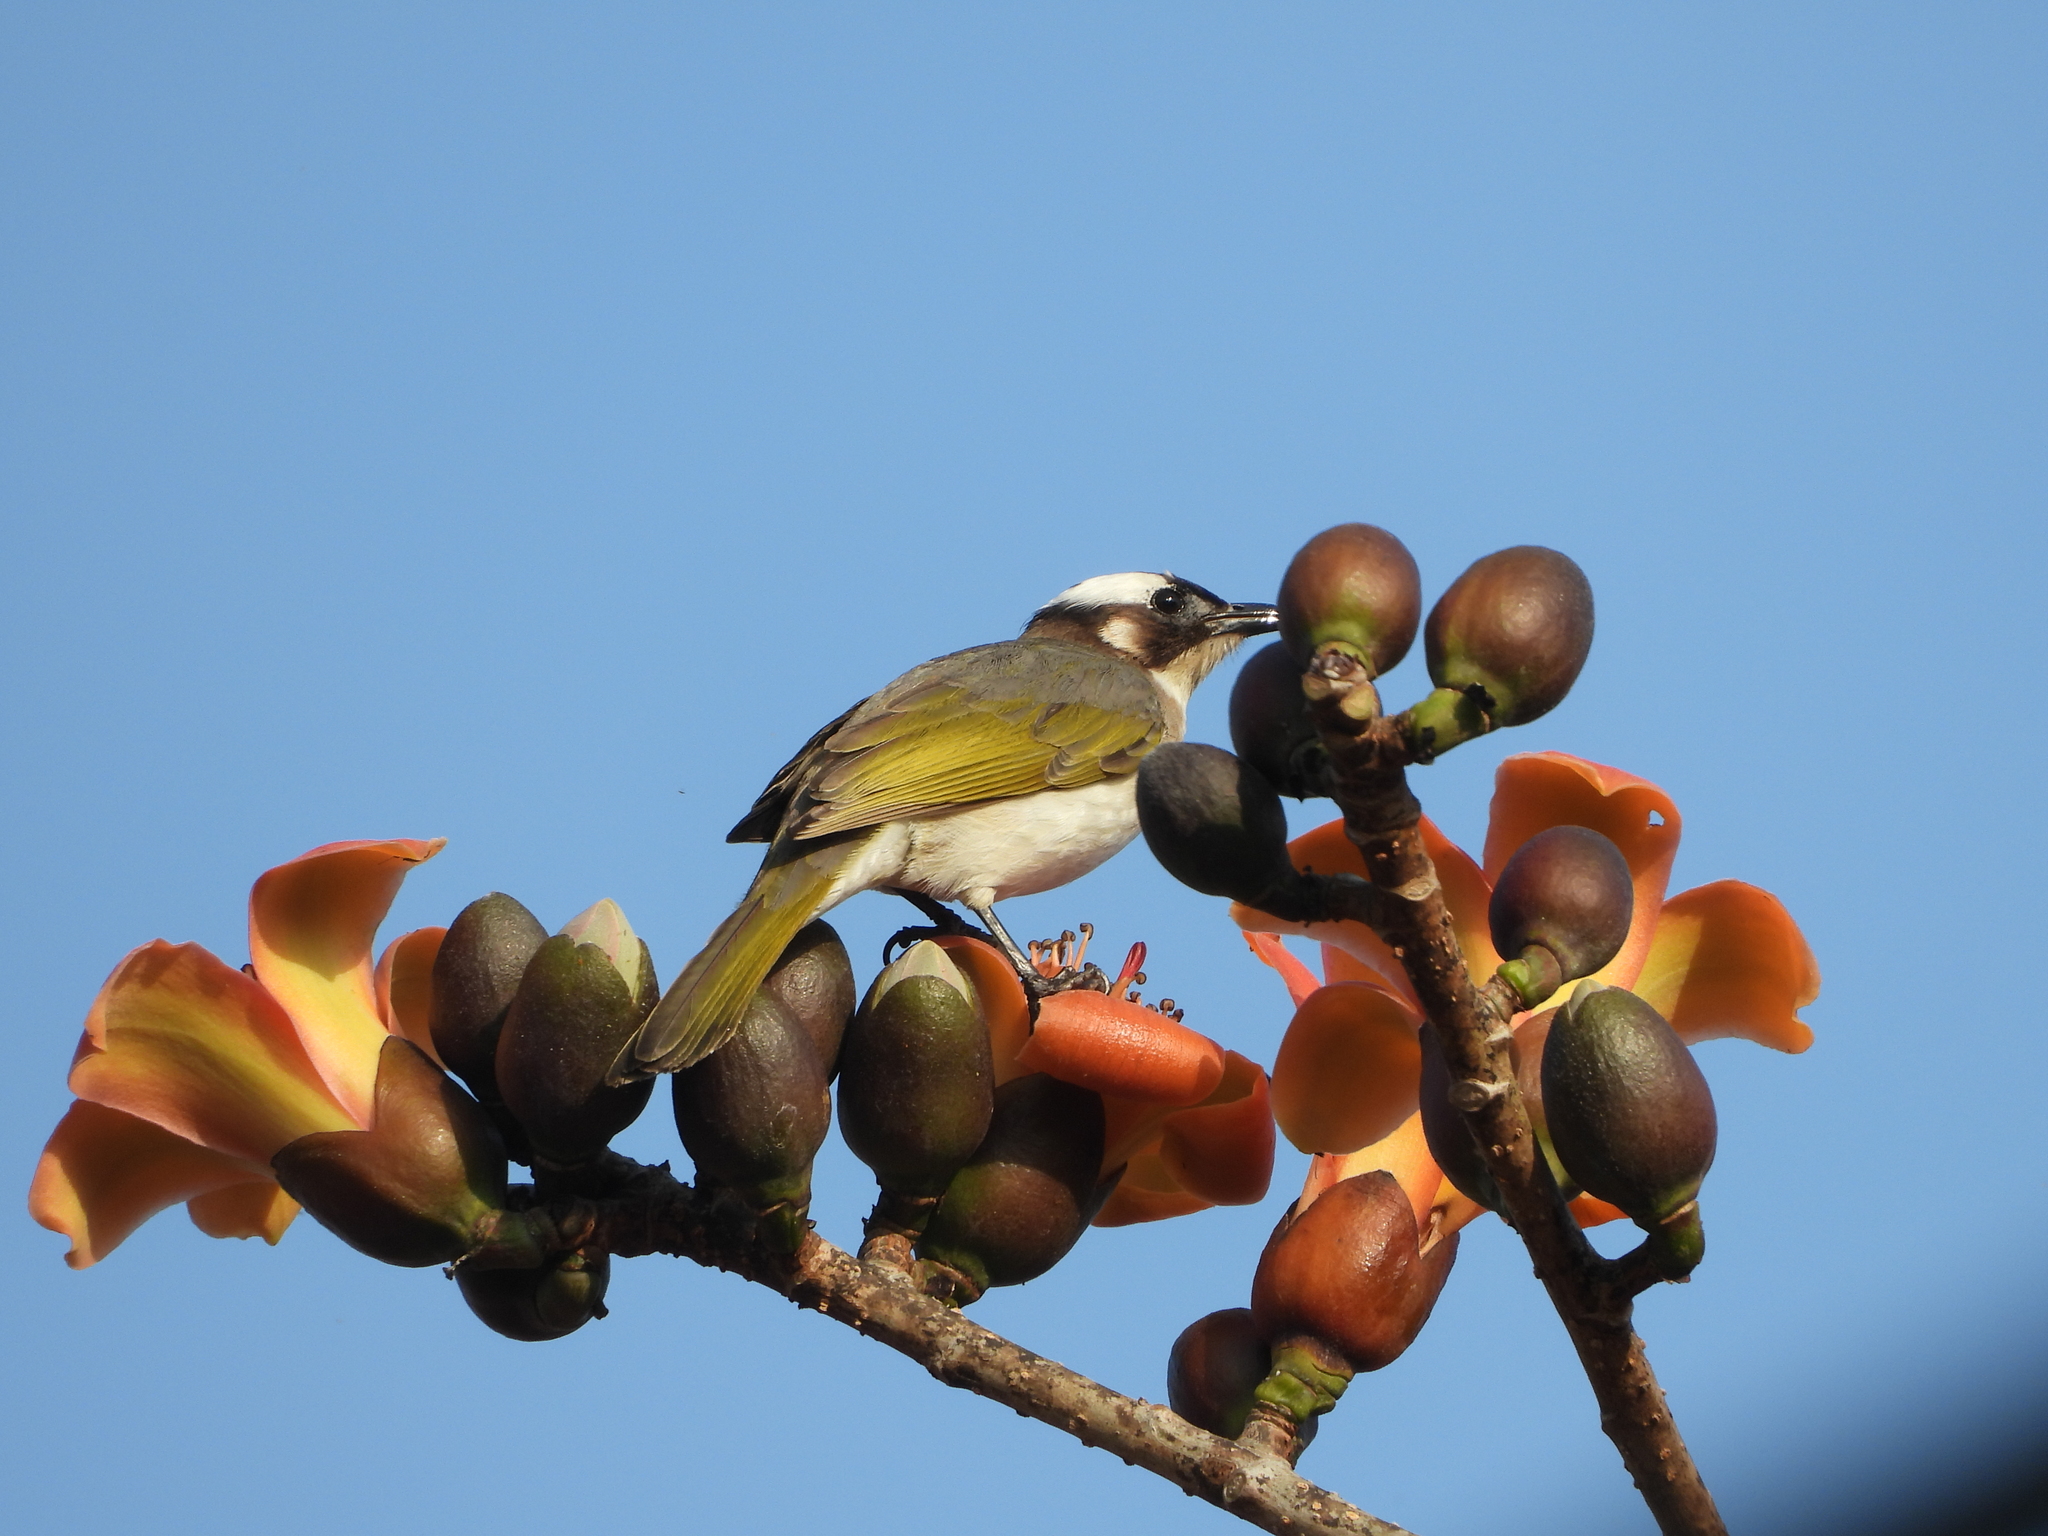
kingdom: Animalia
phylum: Chordata
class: Aves
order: Passeriformes
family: Pycnonotidae
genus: Pycnonotus
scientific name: Pycnonotus sinensis
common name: Light-vented bulbul
